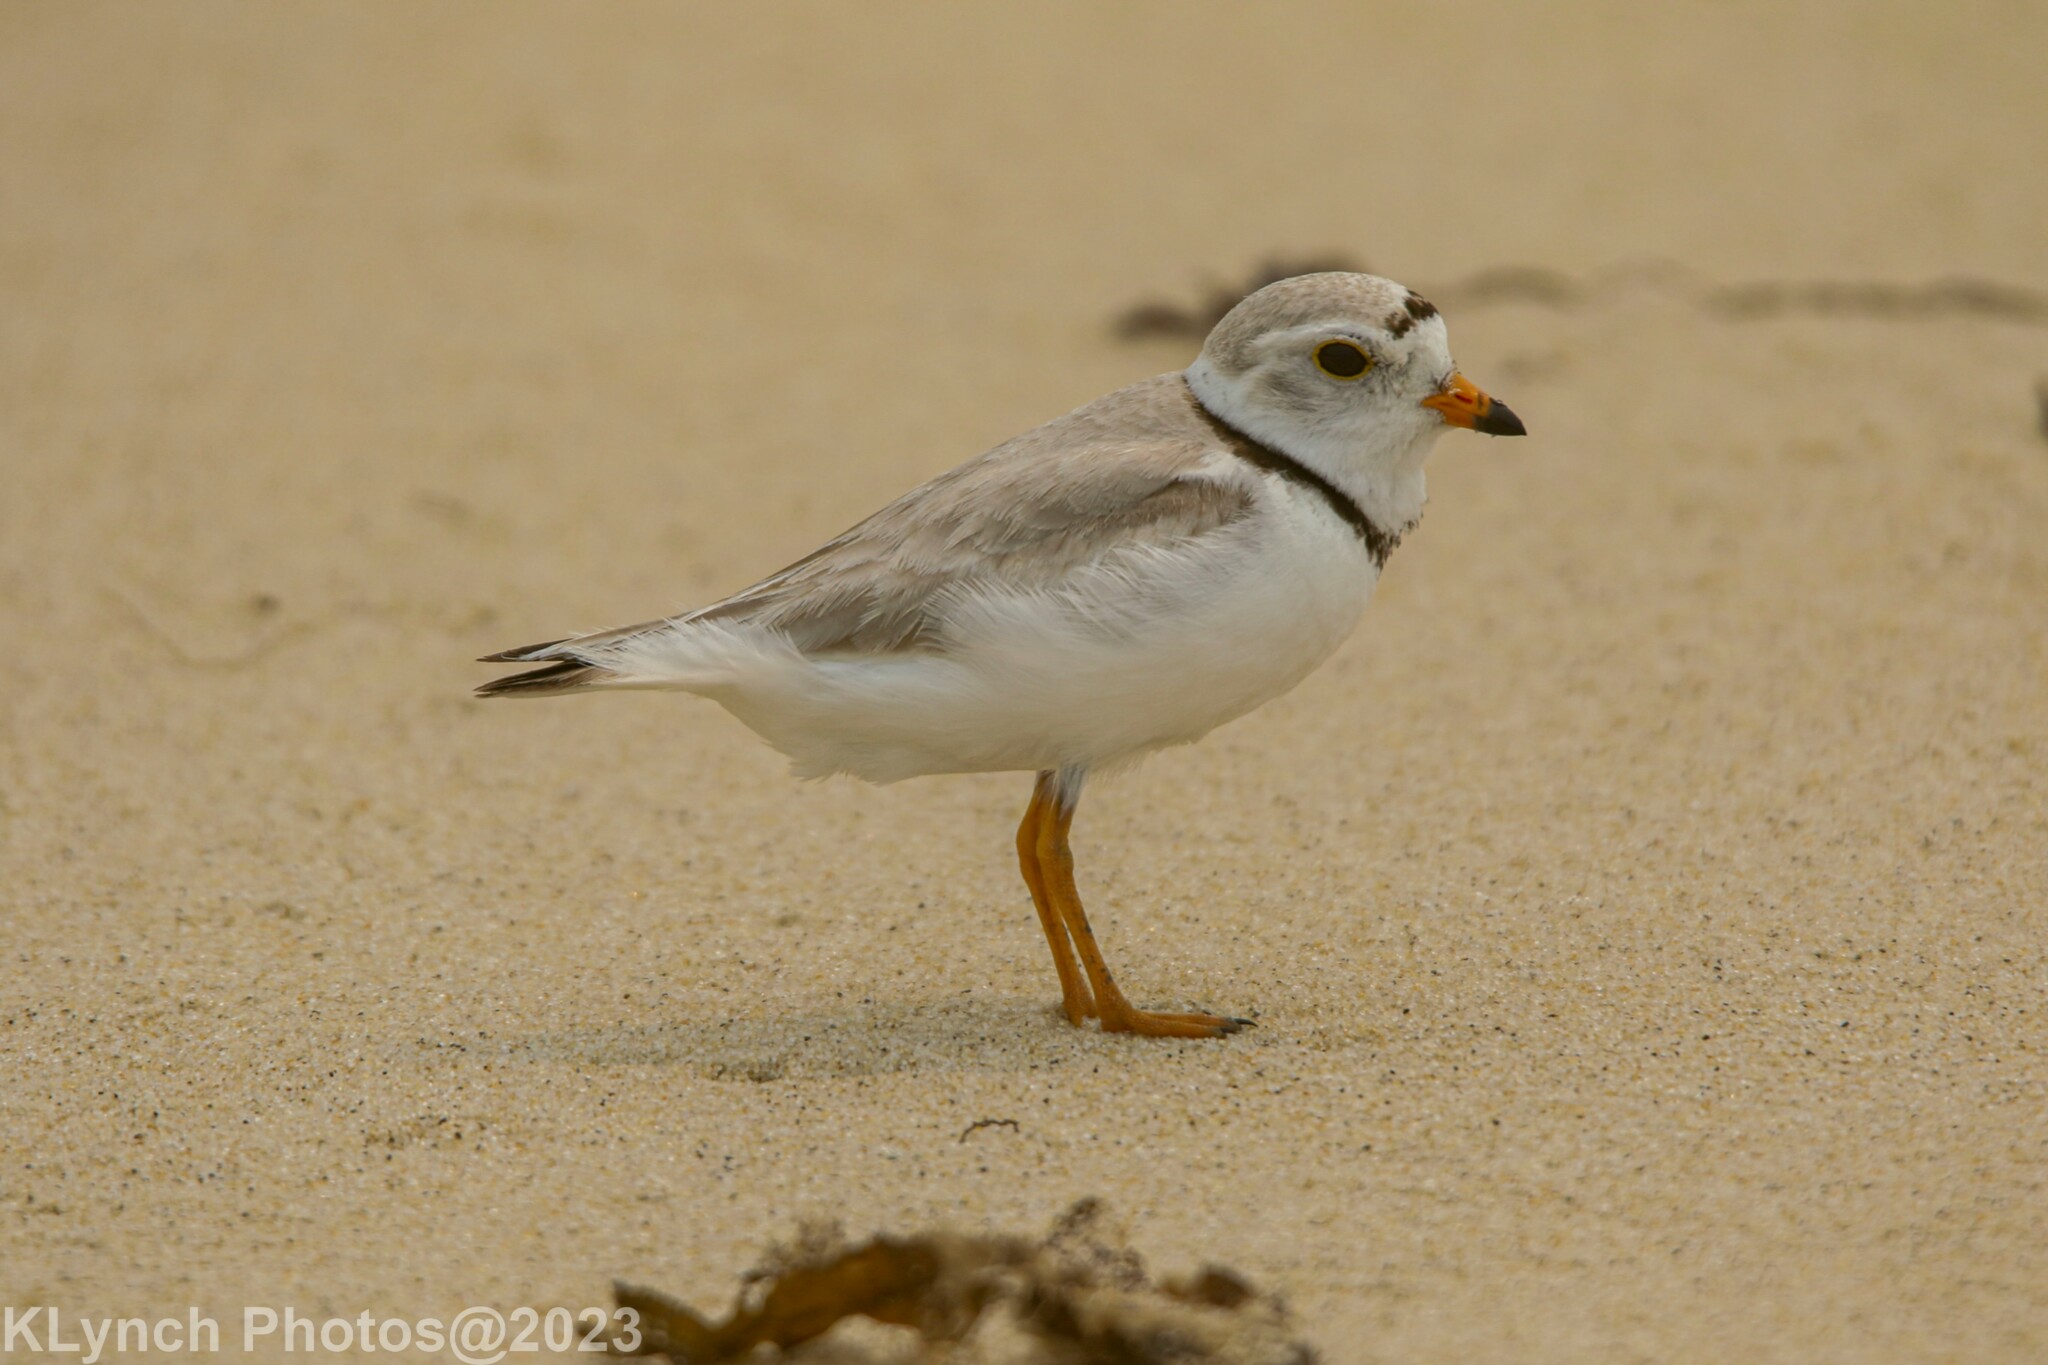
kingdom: Animalia
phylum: Chordata
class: Aves
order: Charadriiformes
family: Charadriidae
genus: Charadrius
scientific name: Charadrius melodus
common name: Piping plover
